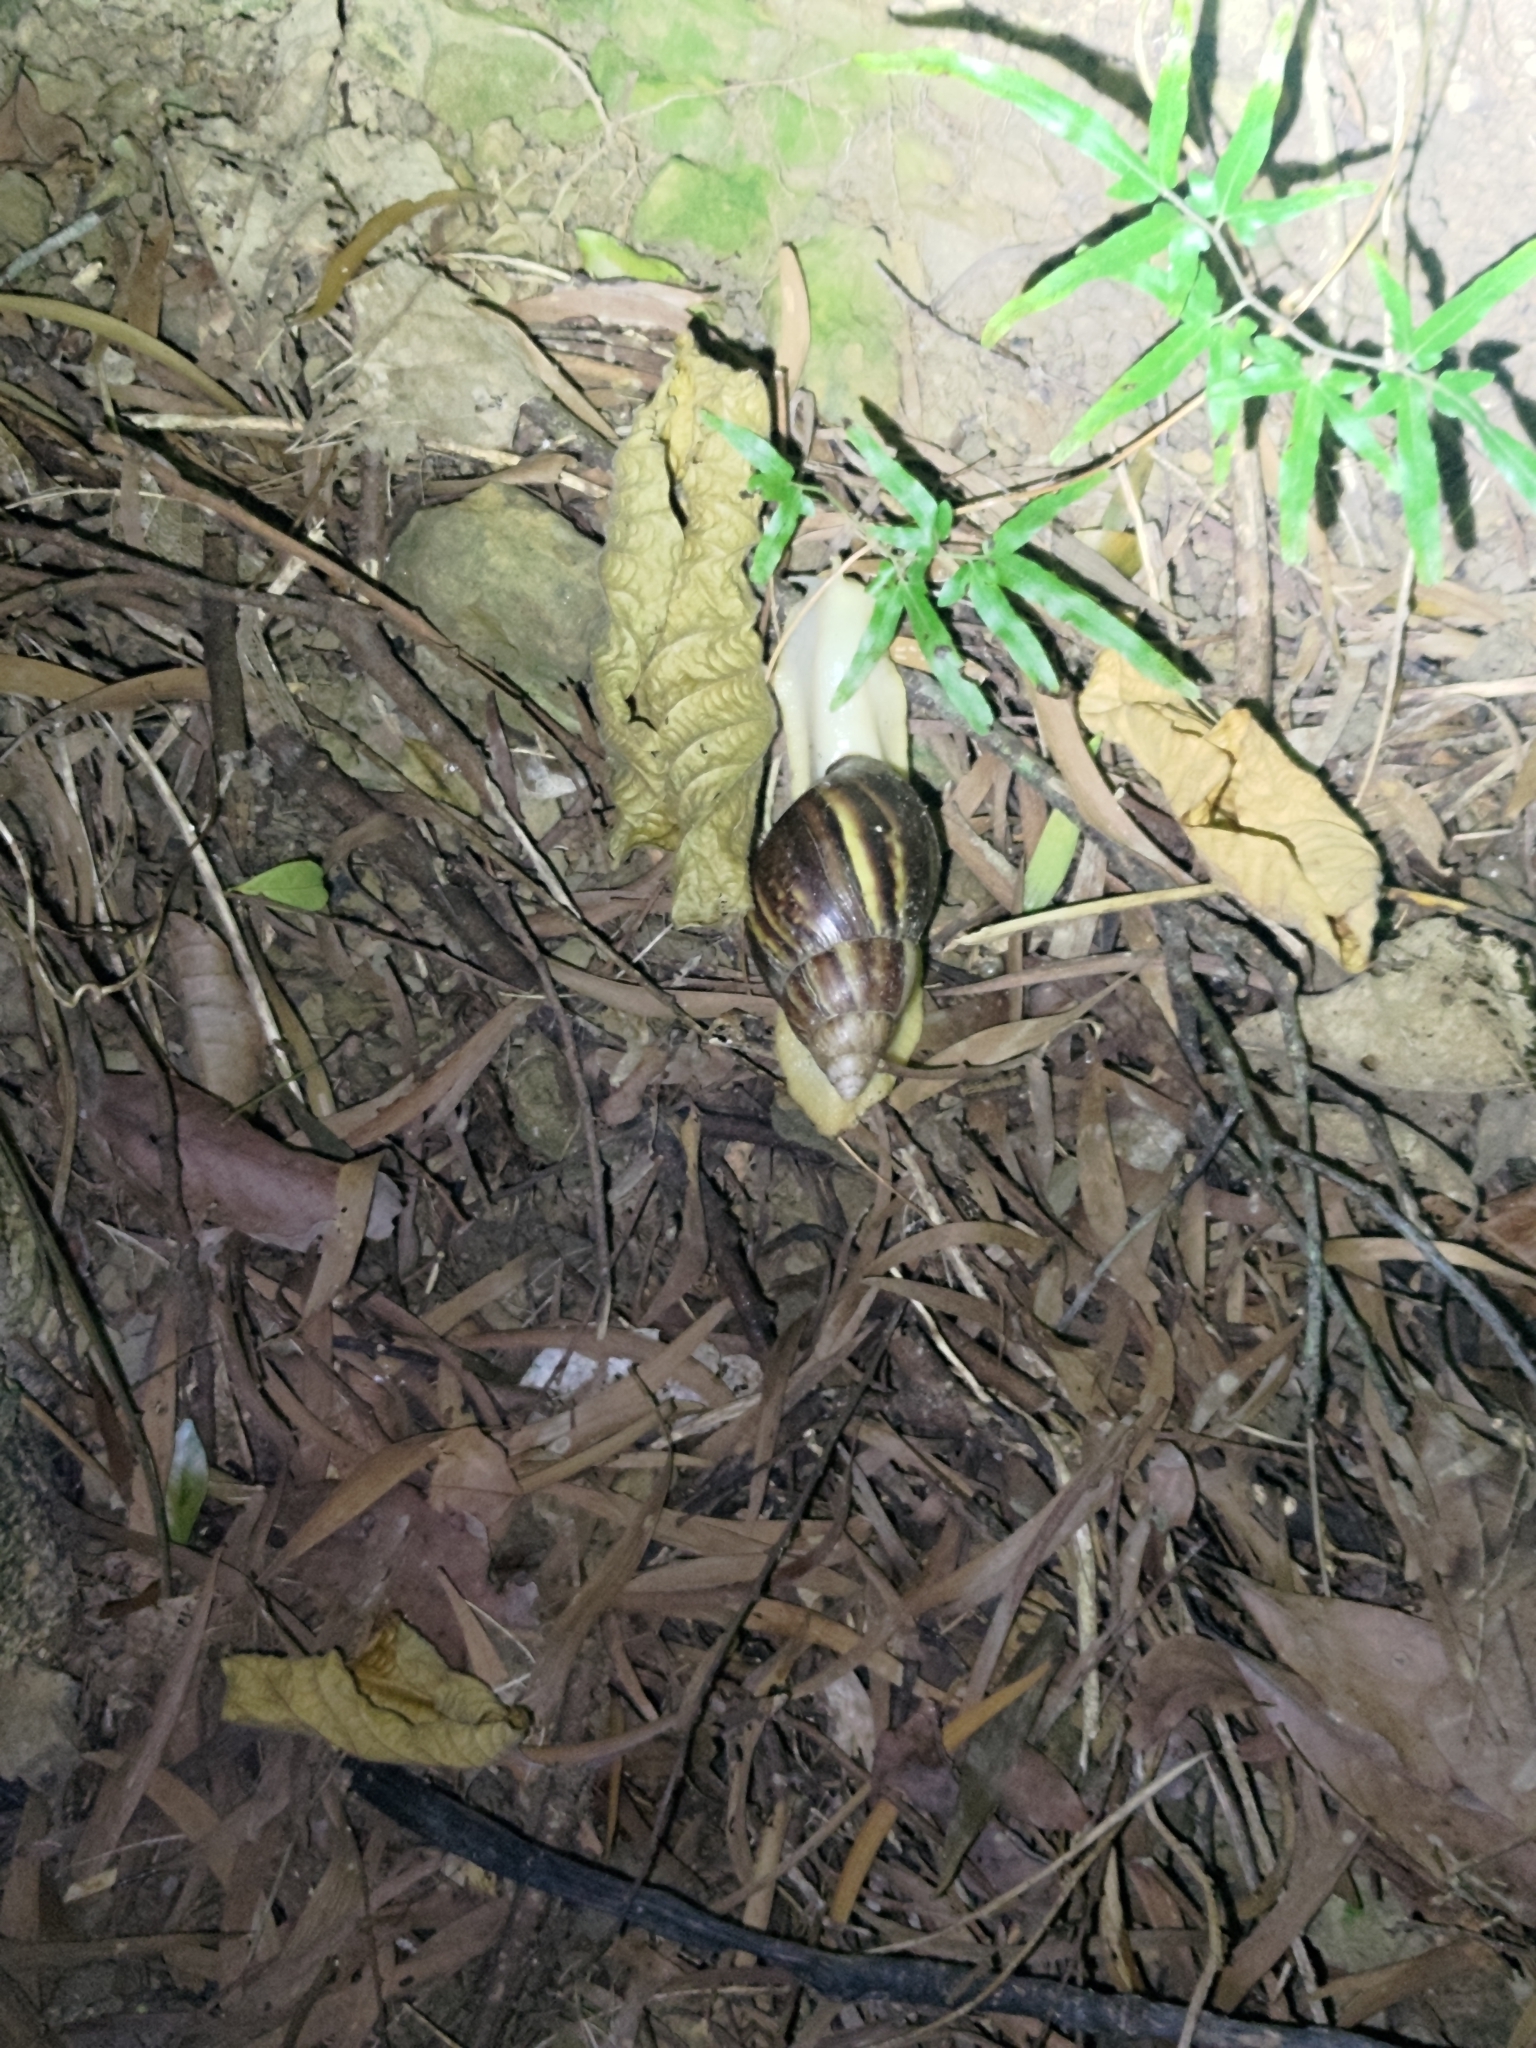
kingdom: Animalia
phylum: Mollusca
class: Gastropoda
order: Stylommatophora
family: Achatinidae
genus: Lissachatina
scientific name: Lissachatina fulica
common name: Giant african snail
